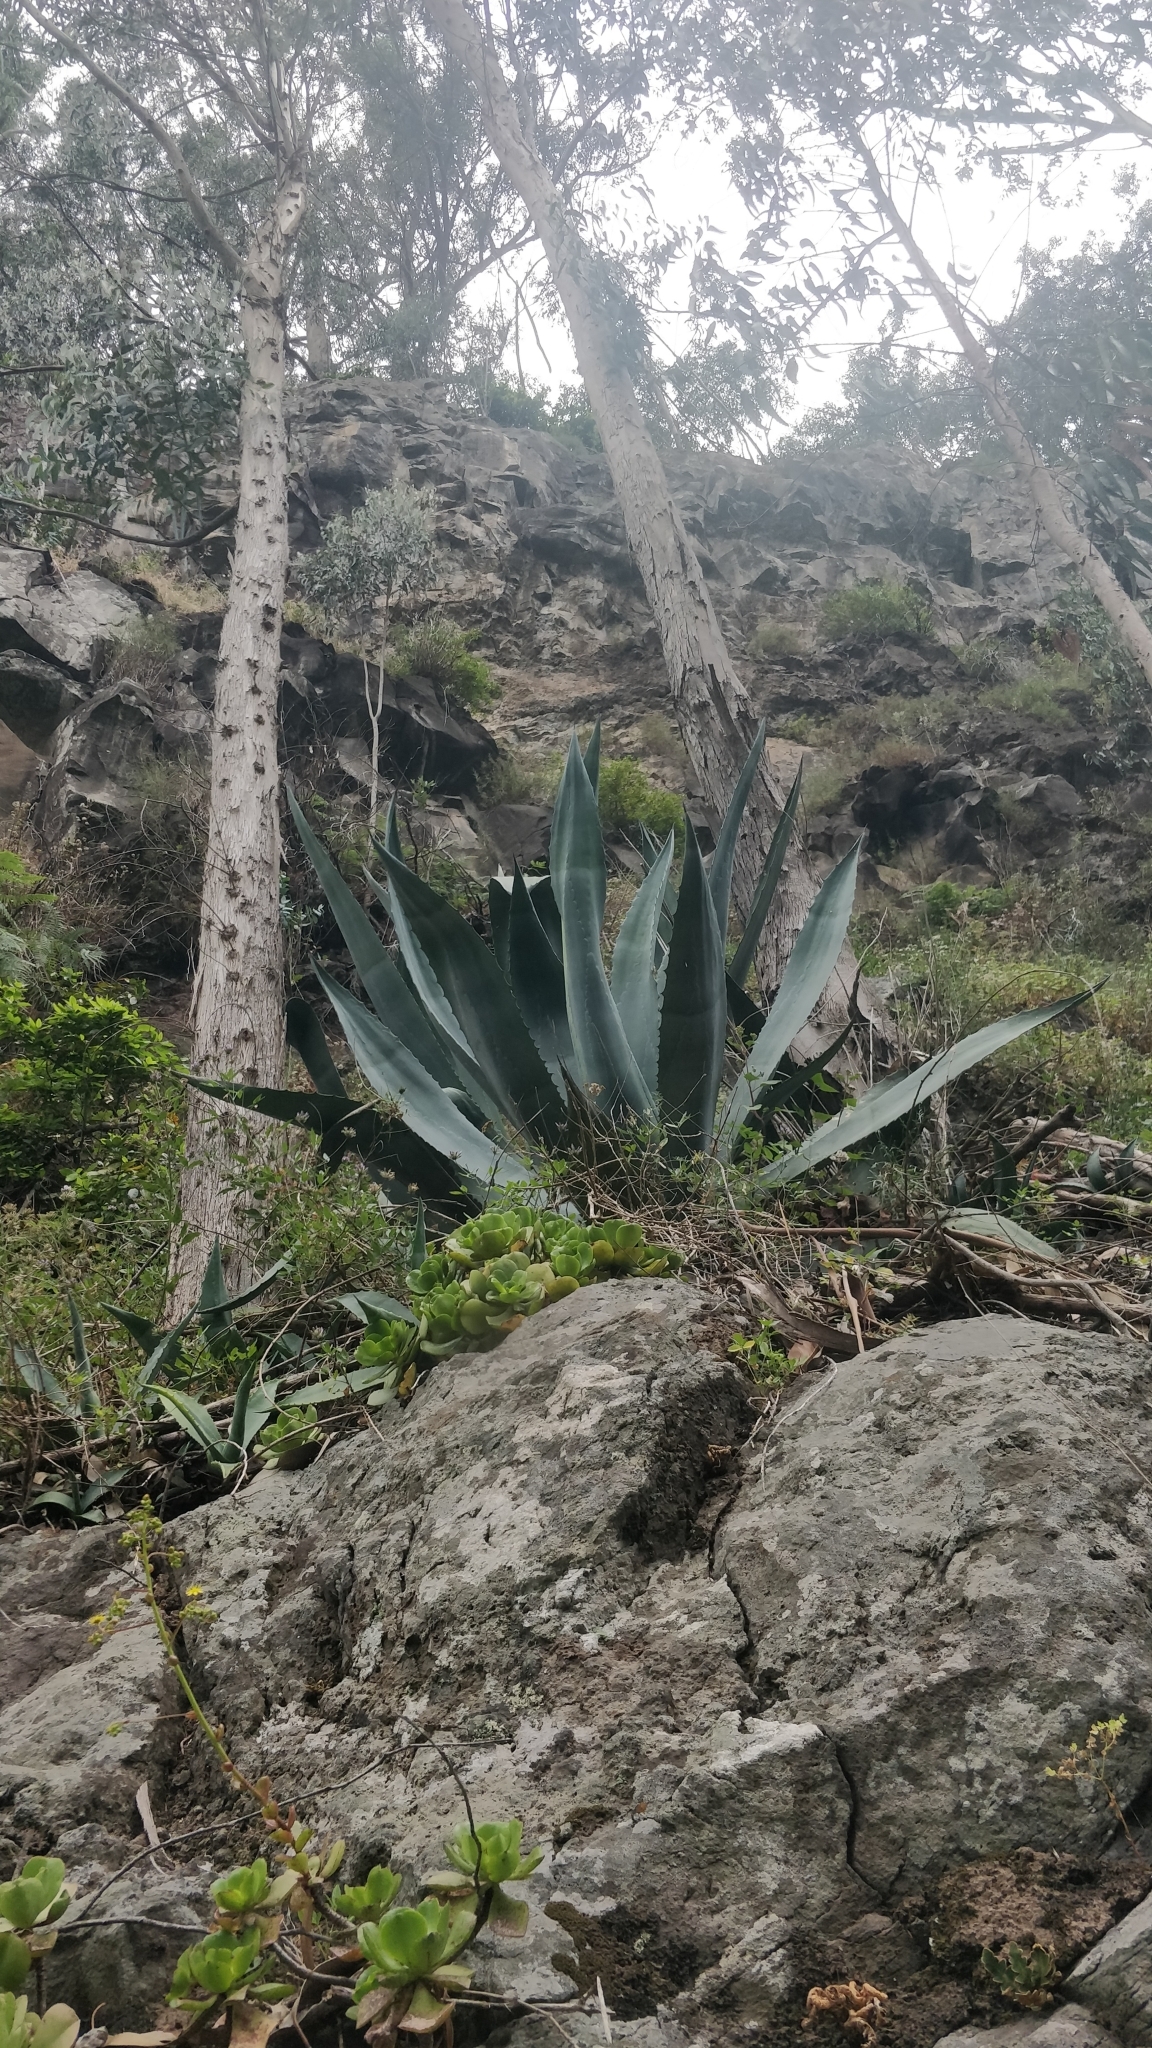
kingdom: Plantae
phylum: Tracheophyta
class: Liliopsida
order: Asparagales
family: Asparagaceae
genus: Agave
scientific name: Agave americana
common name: Centuryplant
